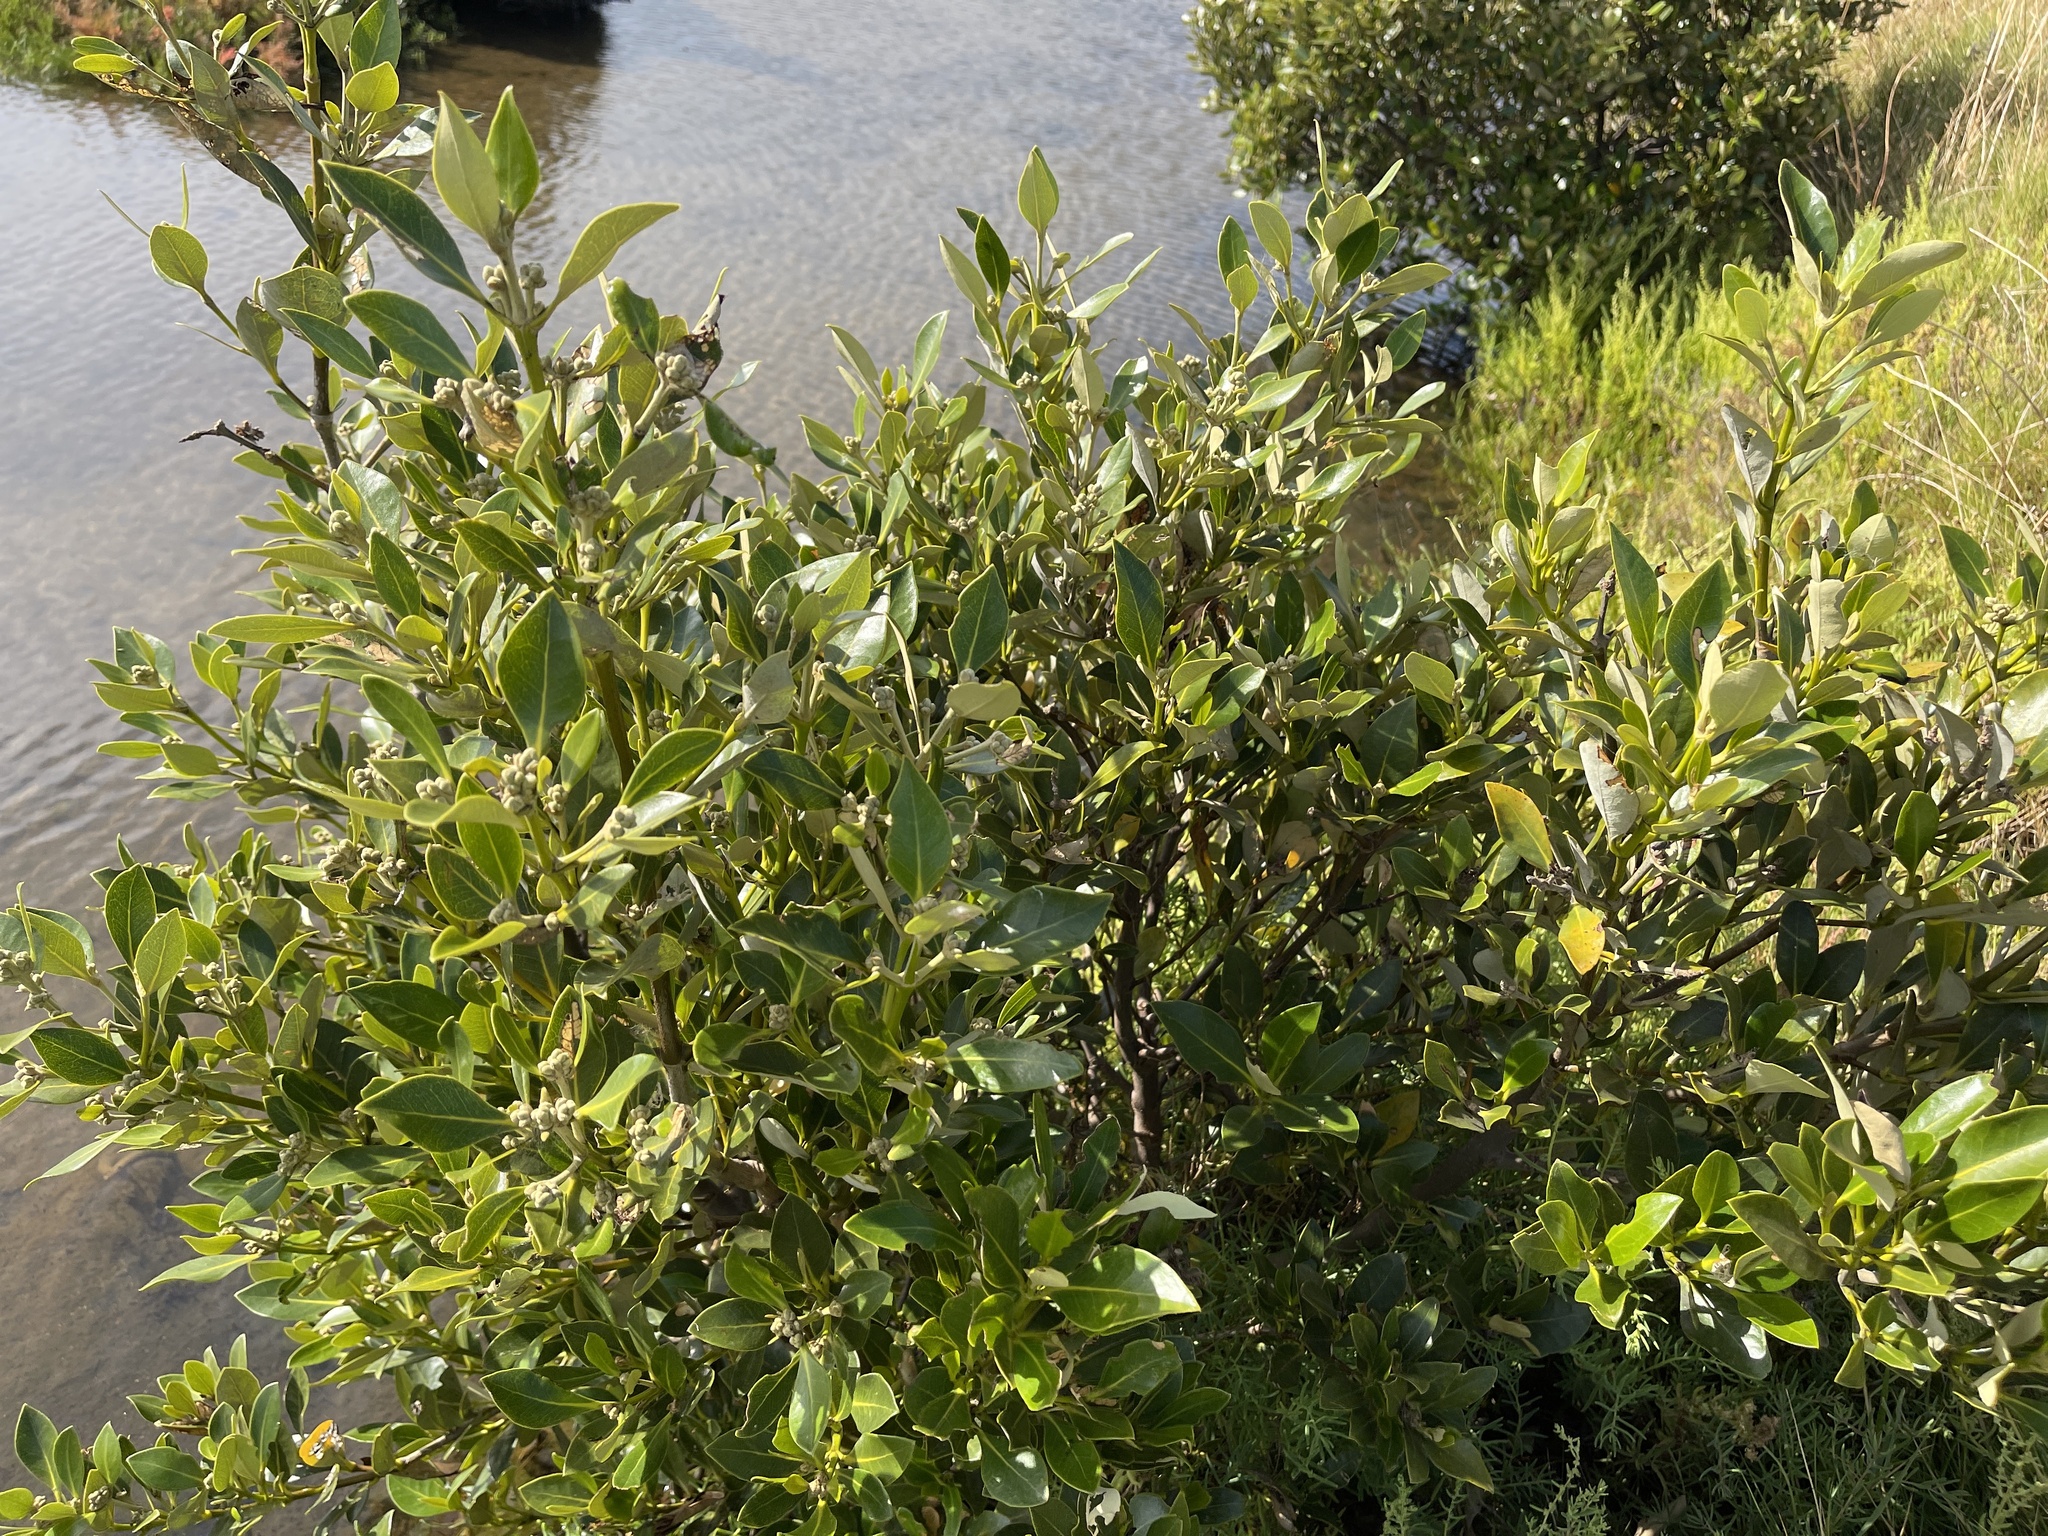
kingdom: Plantae
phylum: Tracheophyta
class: Magnoliopsida
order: Lamiales
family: Acanthaceae
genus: Avicennia
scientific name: Avicennia marina
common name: Gray mangrove
